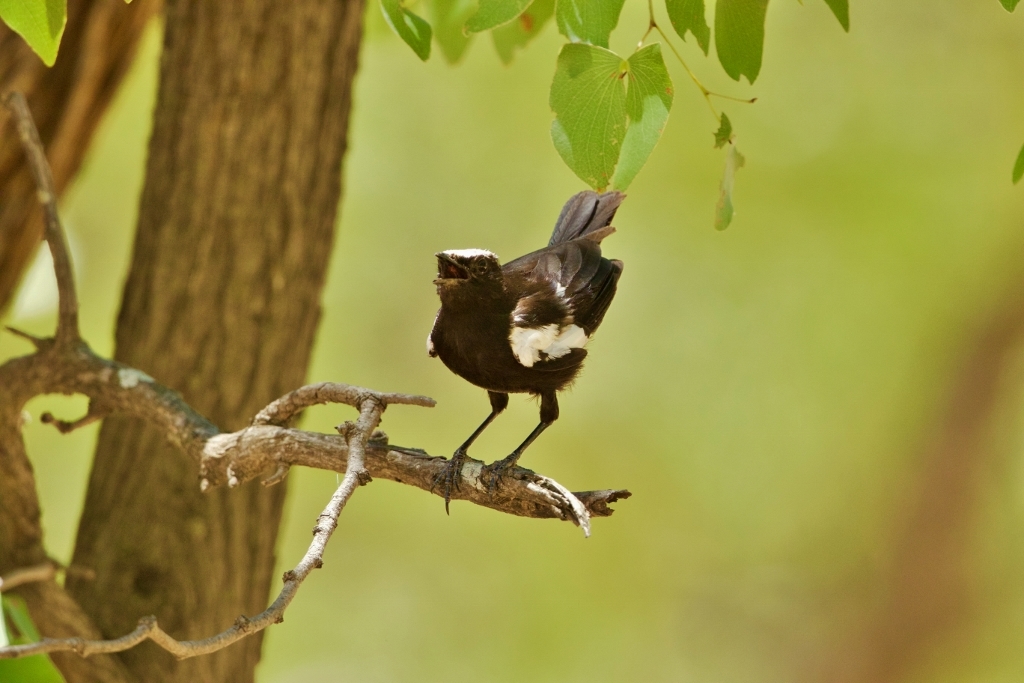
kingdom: Animalia
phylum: Chordata
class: Aves
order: Passeriformes
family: Muscicapidae
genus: Pentholaea
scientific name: Pentholaea arnotti
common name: Arnot's chat
